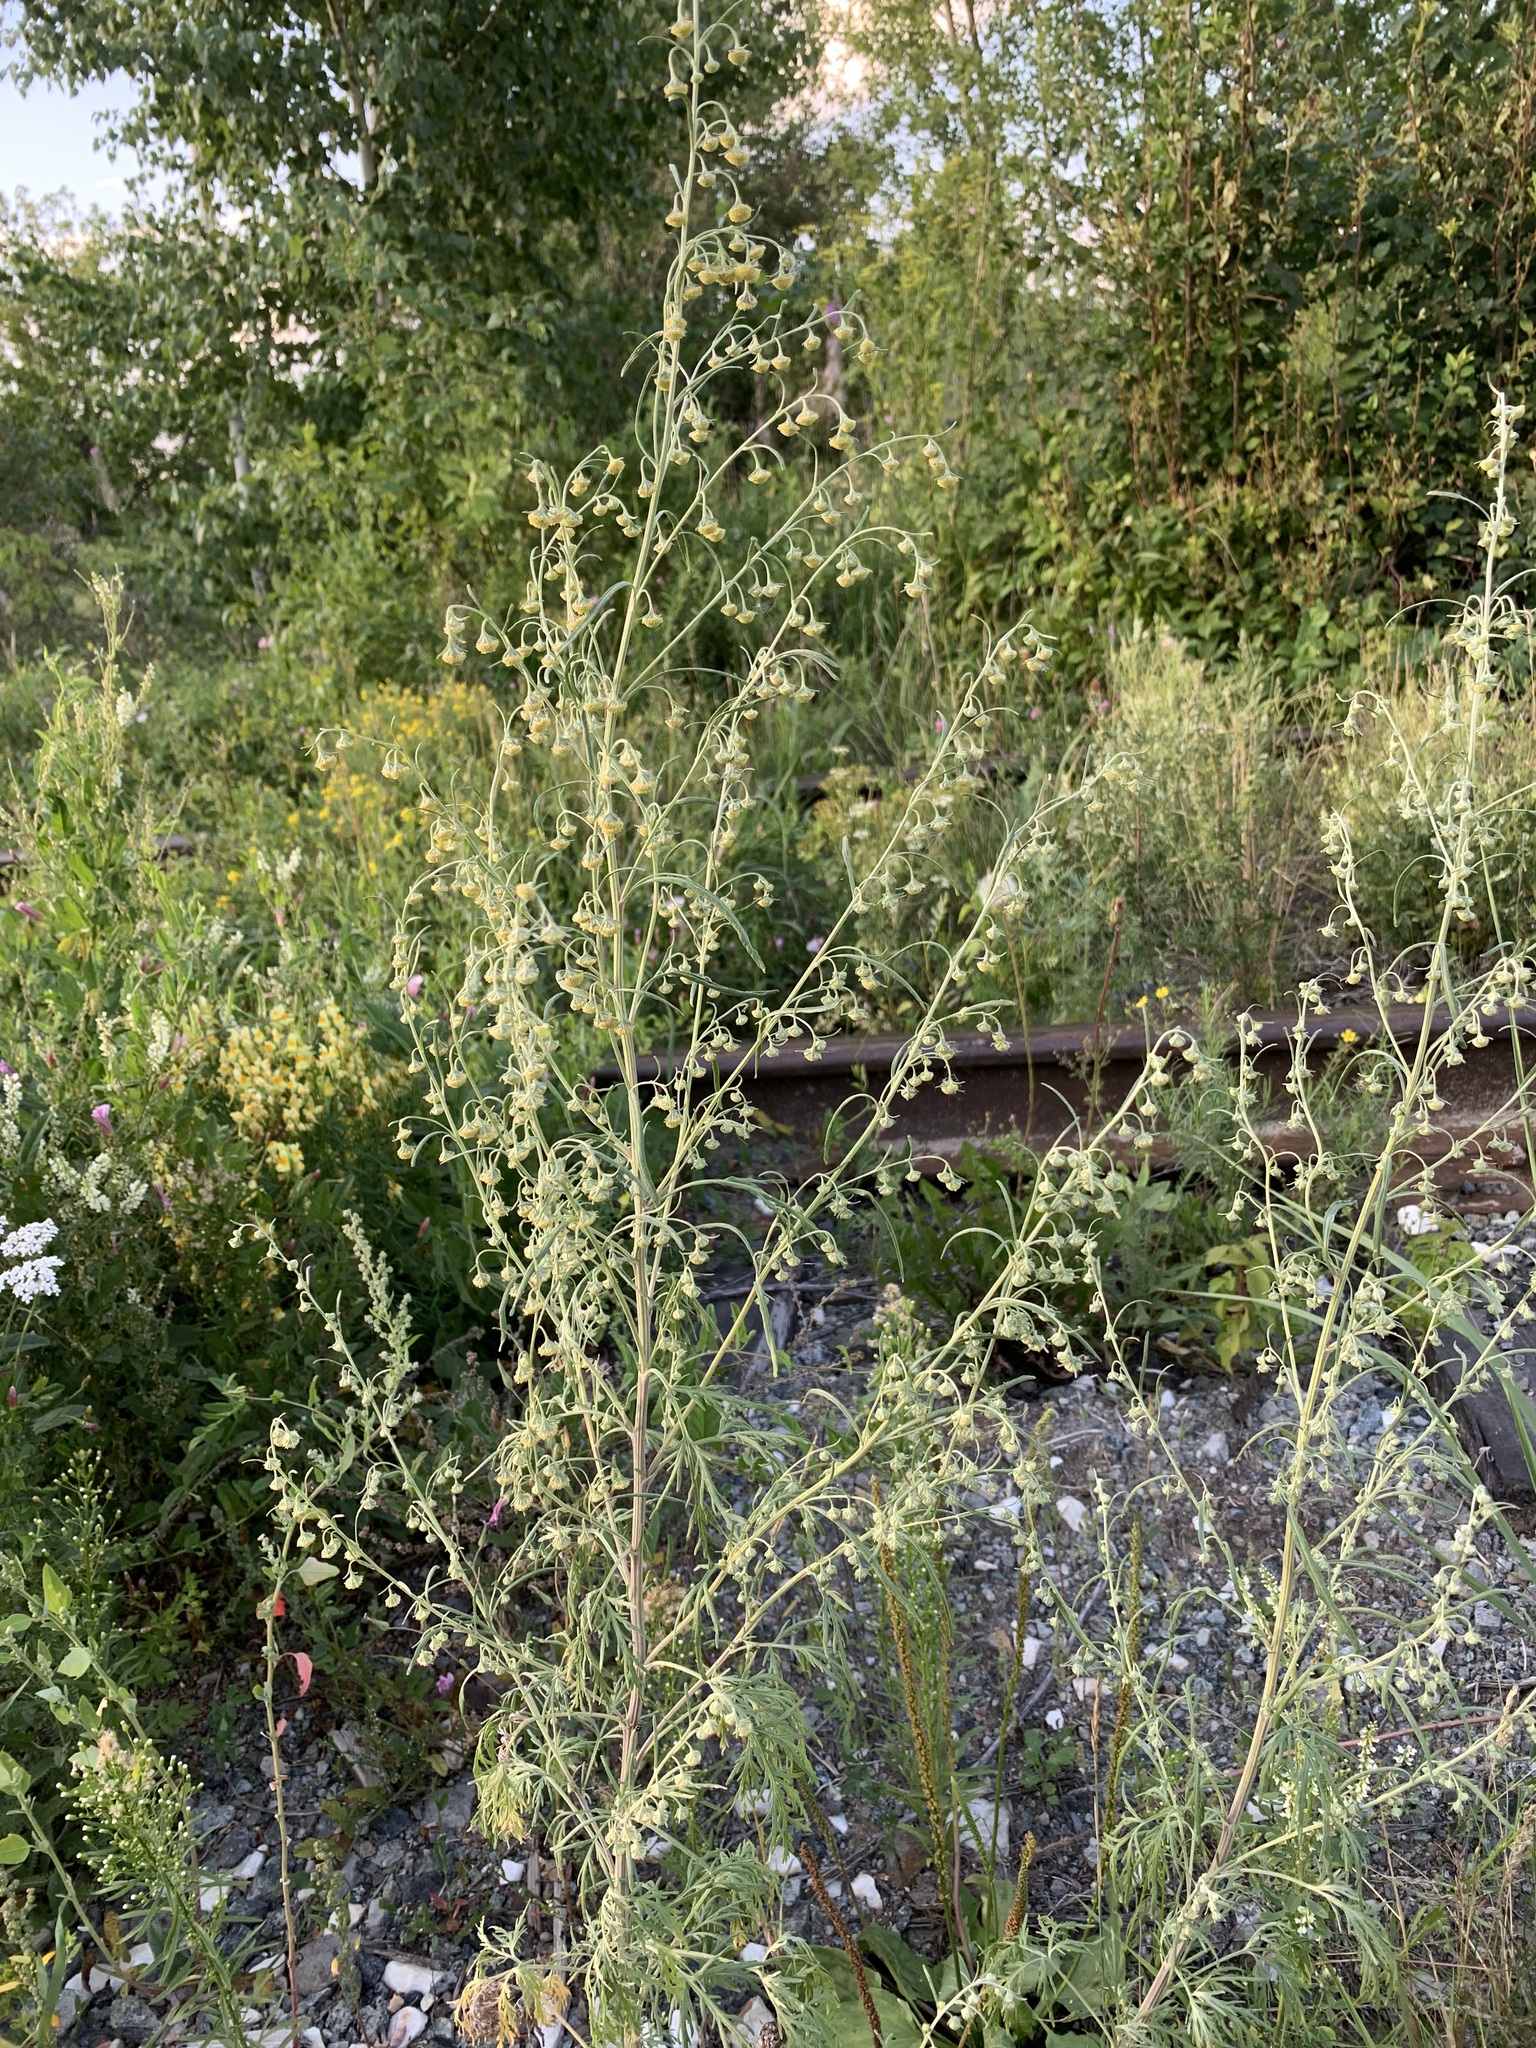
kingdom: Plantae
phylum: Tracheophyta
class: Magnoliopsida
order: Asterales
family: Asteraceae
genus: Artemisia
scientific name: Artemisia sieversiana
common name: Sieversian wormwood
